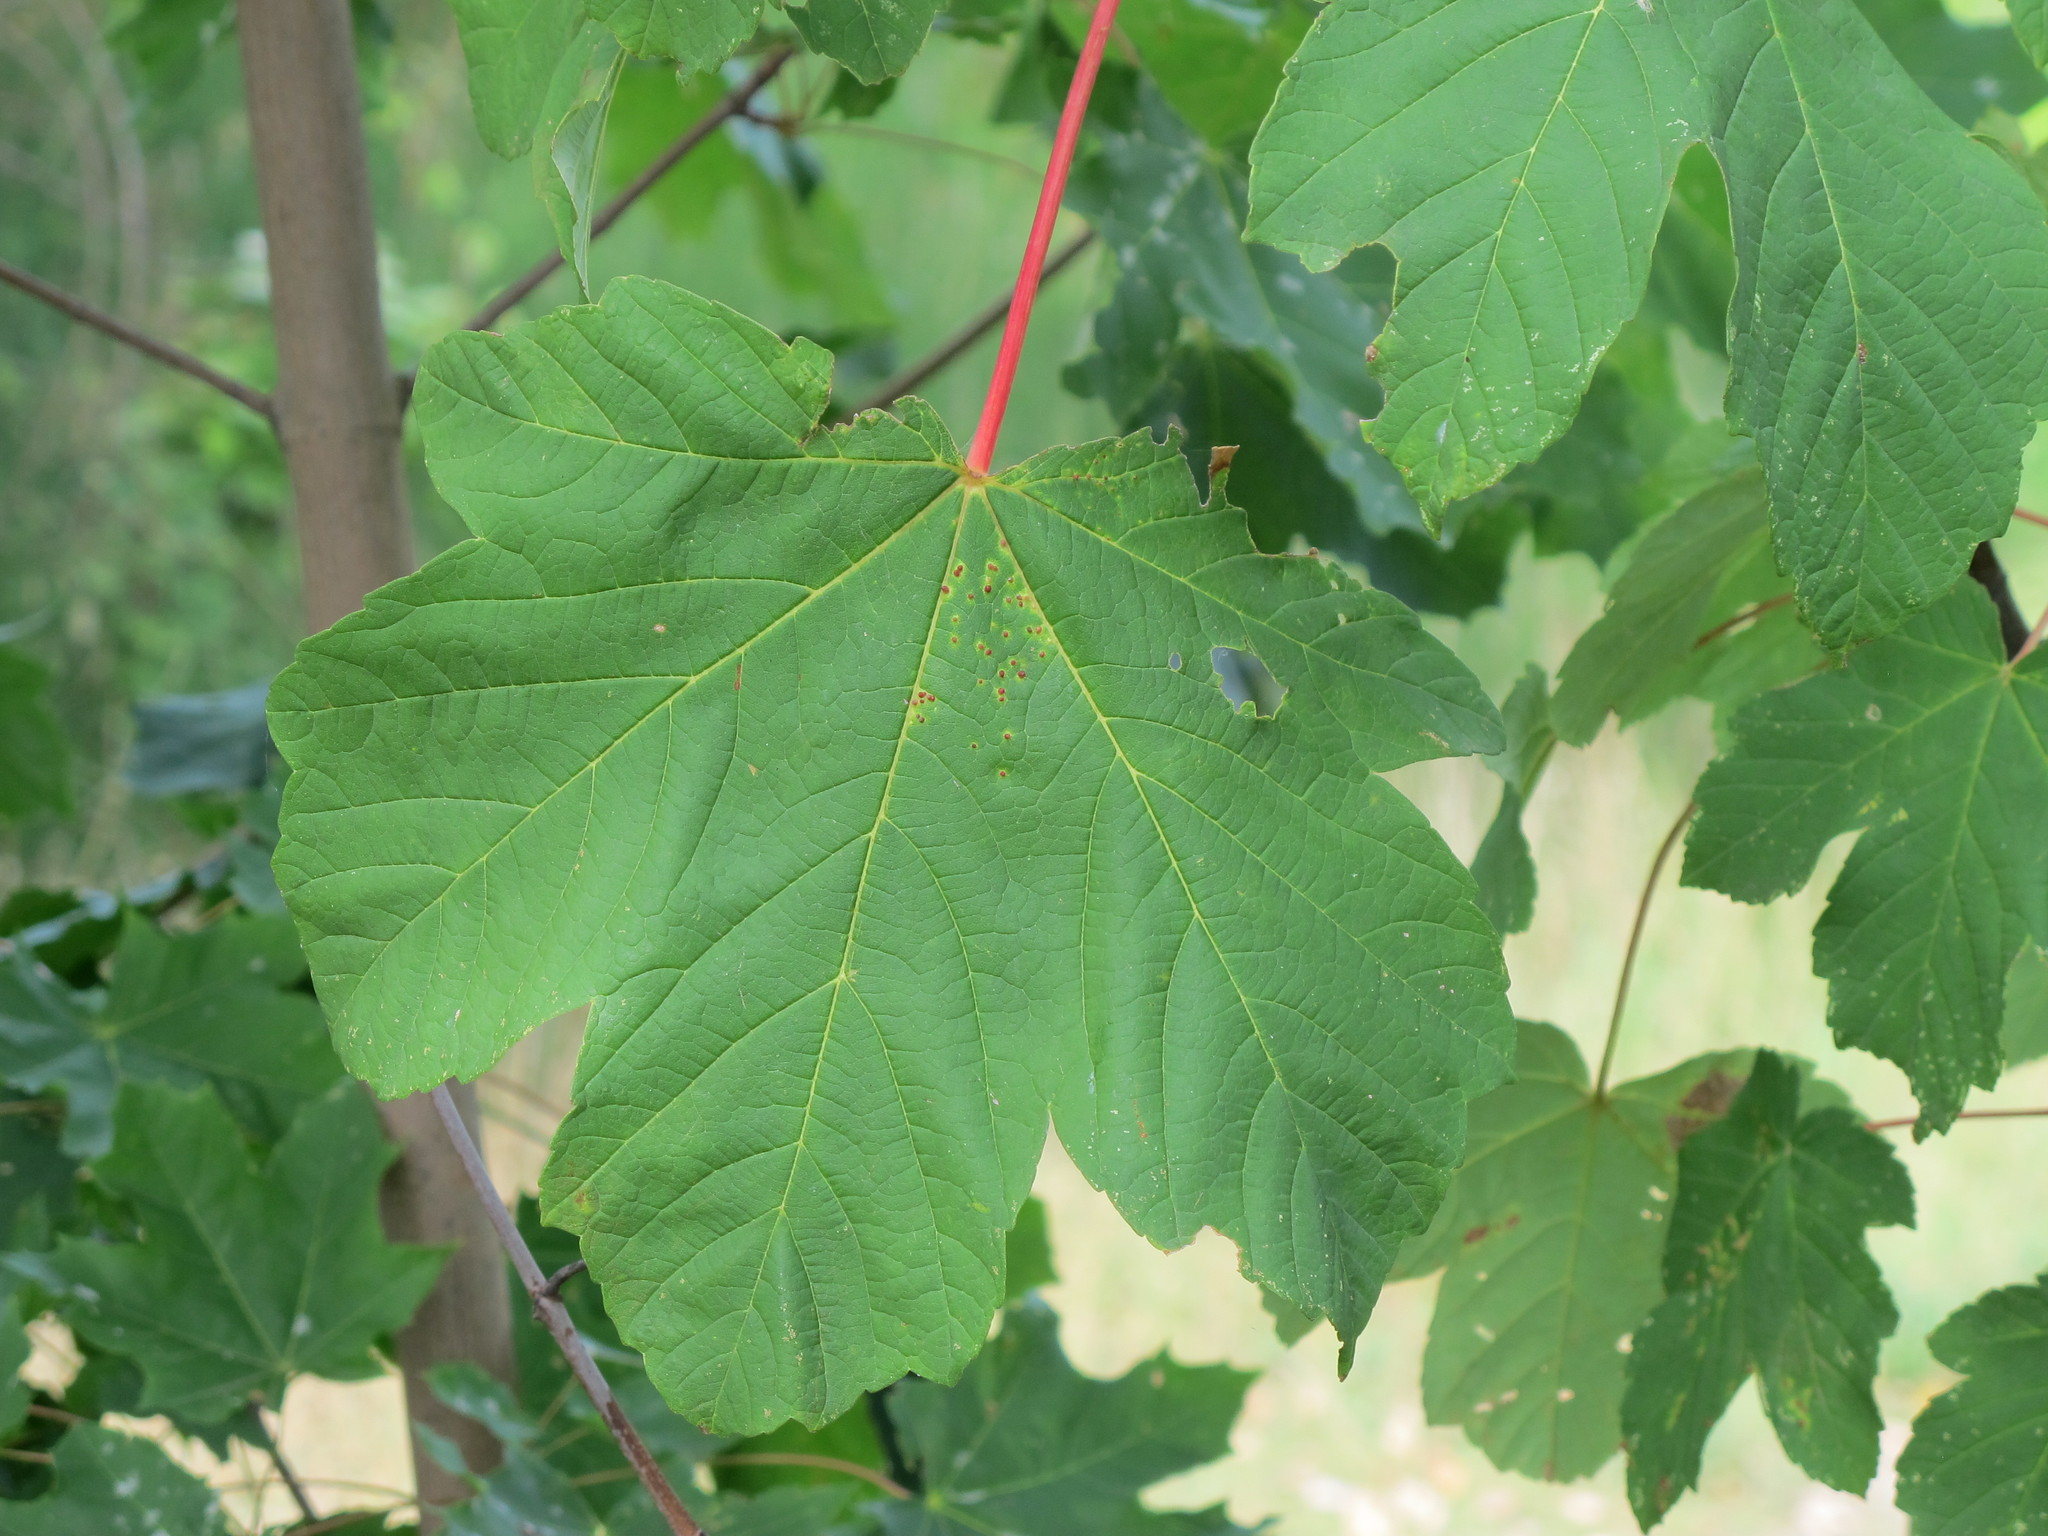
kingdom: Plantae
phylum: Tracheophyta
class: Magnoliopsida
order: Sapindales
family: Sapindaceae
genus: Acer
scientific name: Acer pseudoplatanus
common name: Sycamore
